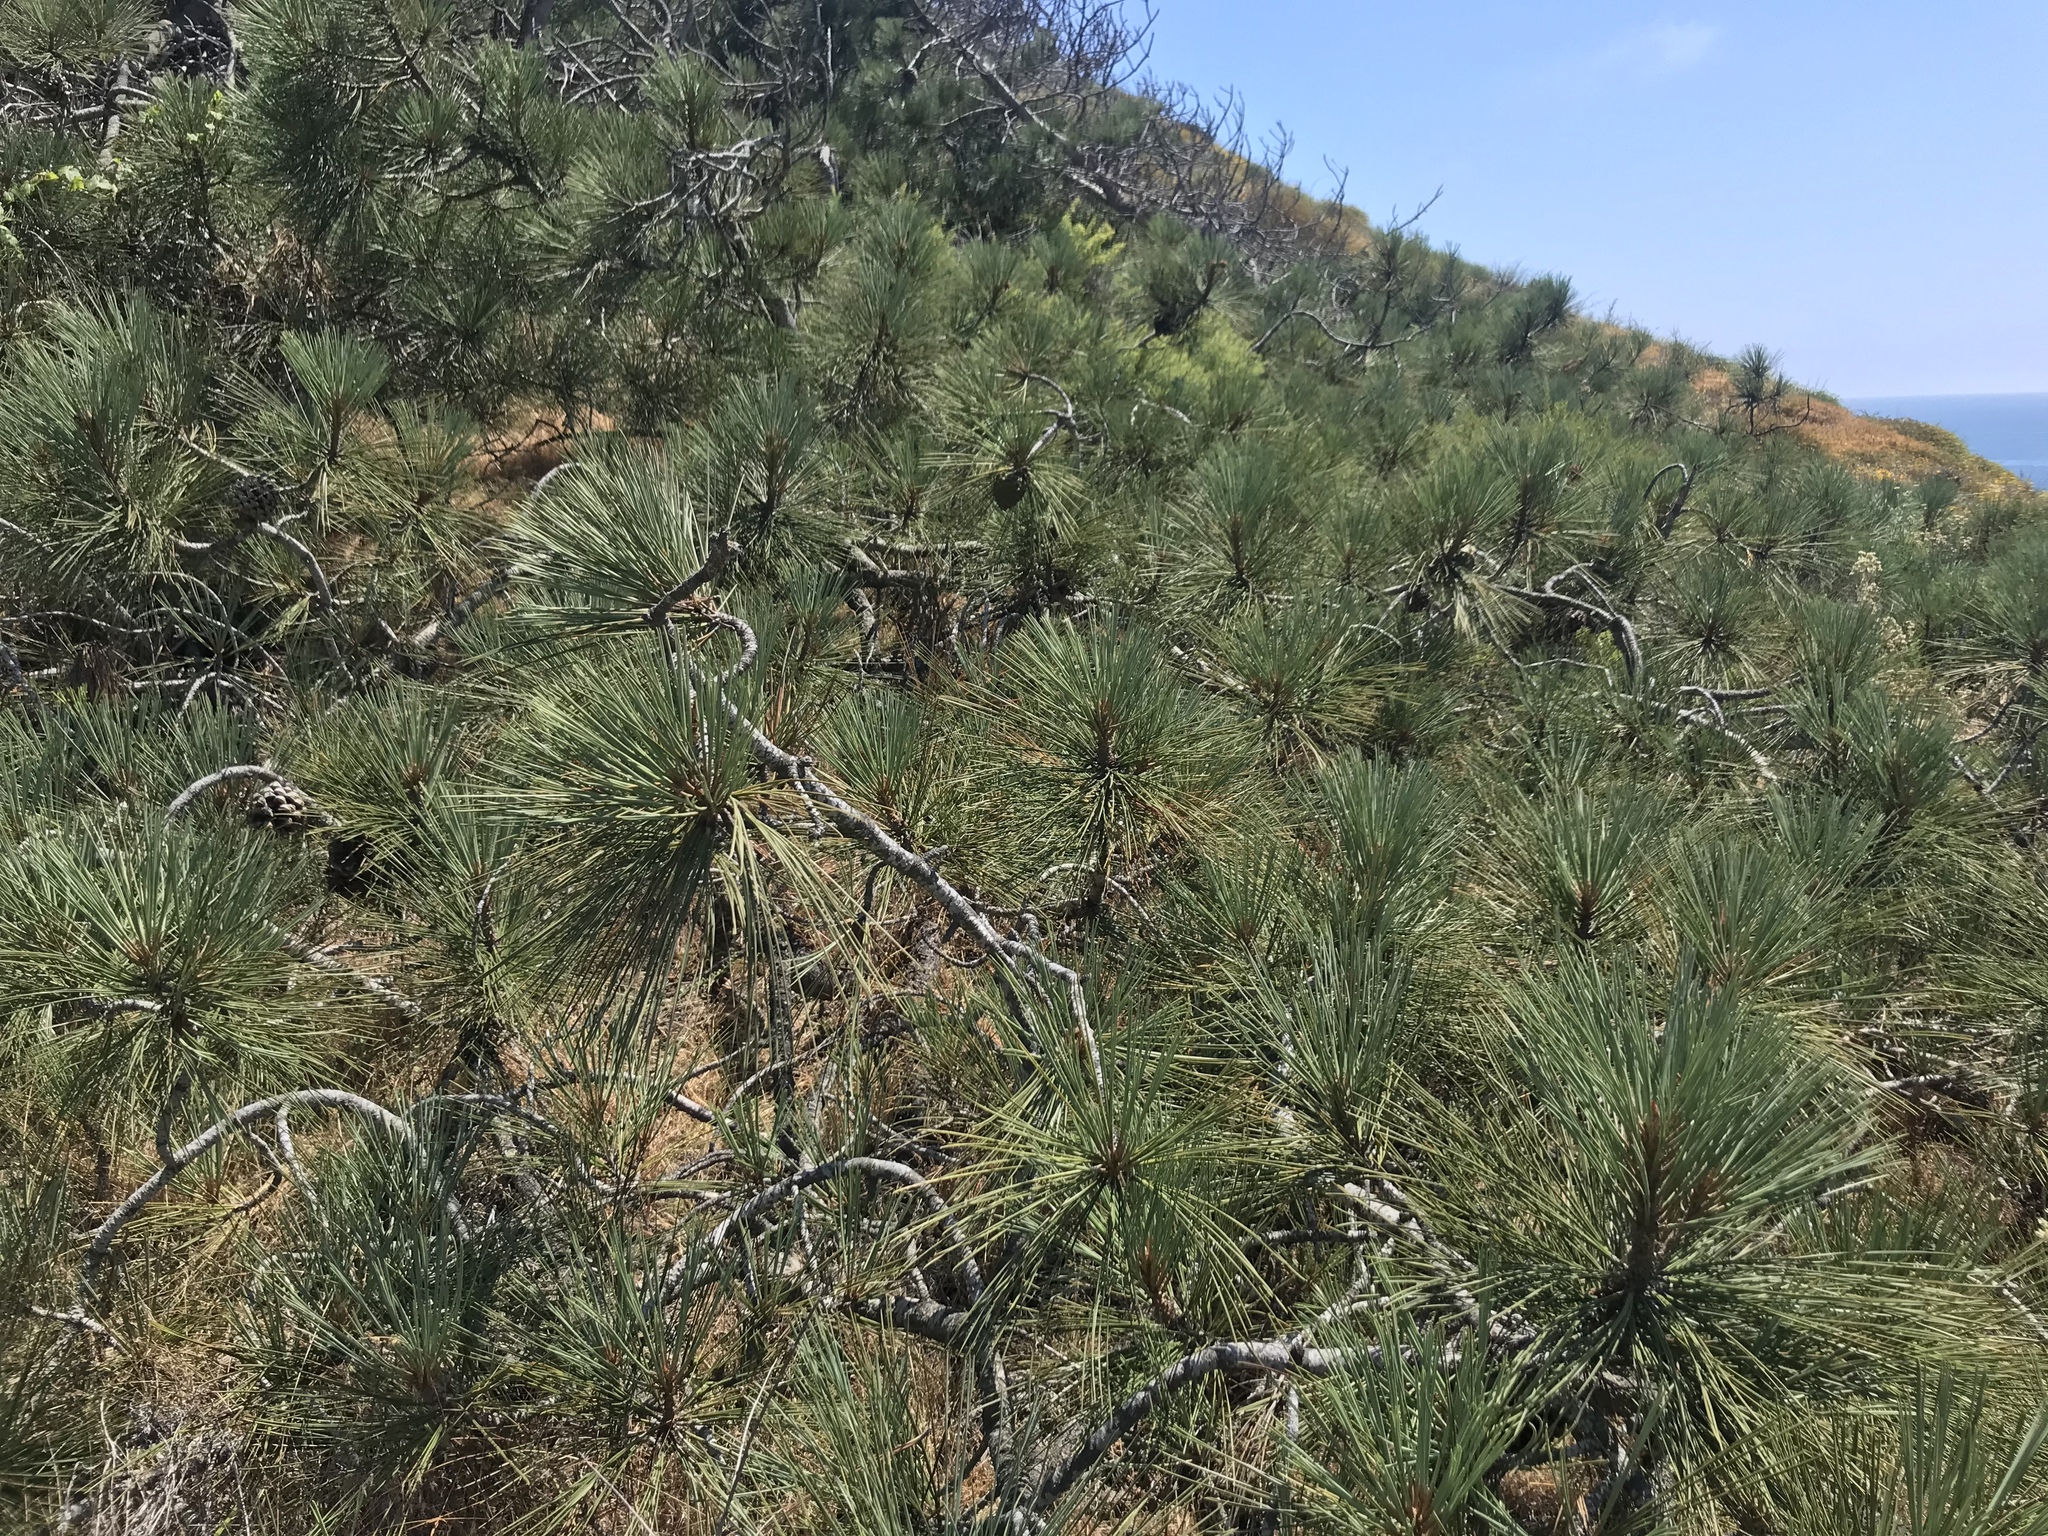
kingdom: Plantae
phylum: Tracheophyta
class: Pinopsida
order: Pinales
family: Pinaceae
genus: Pinus
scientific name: Pinus torreyana
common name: Torrey pine
